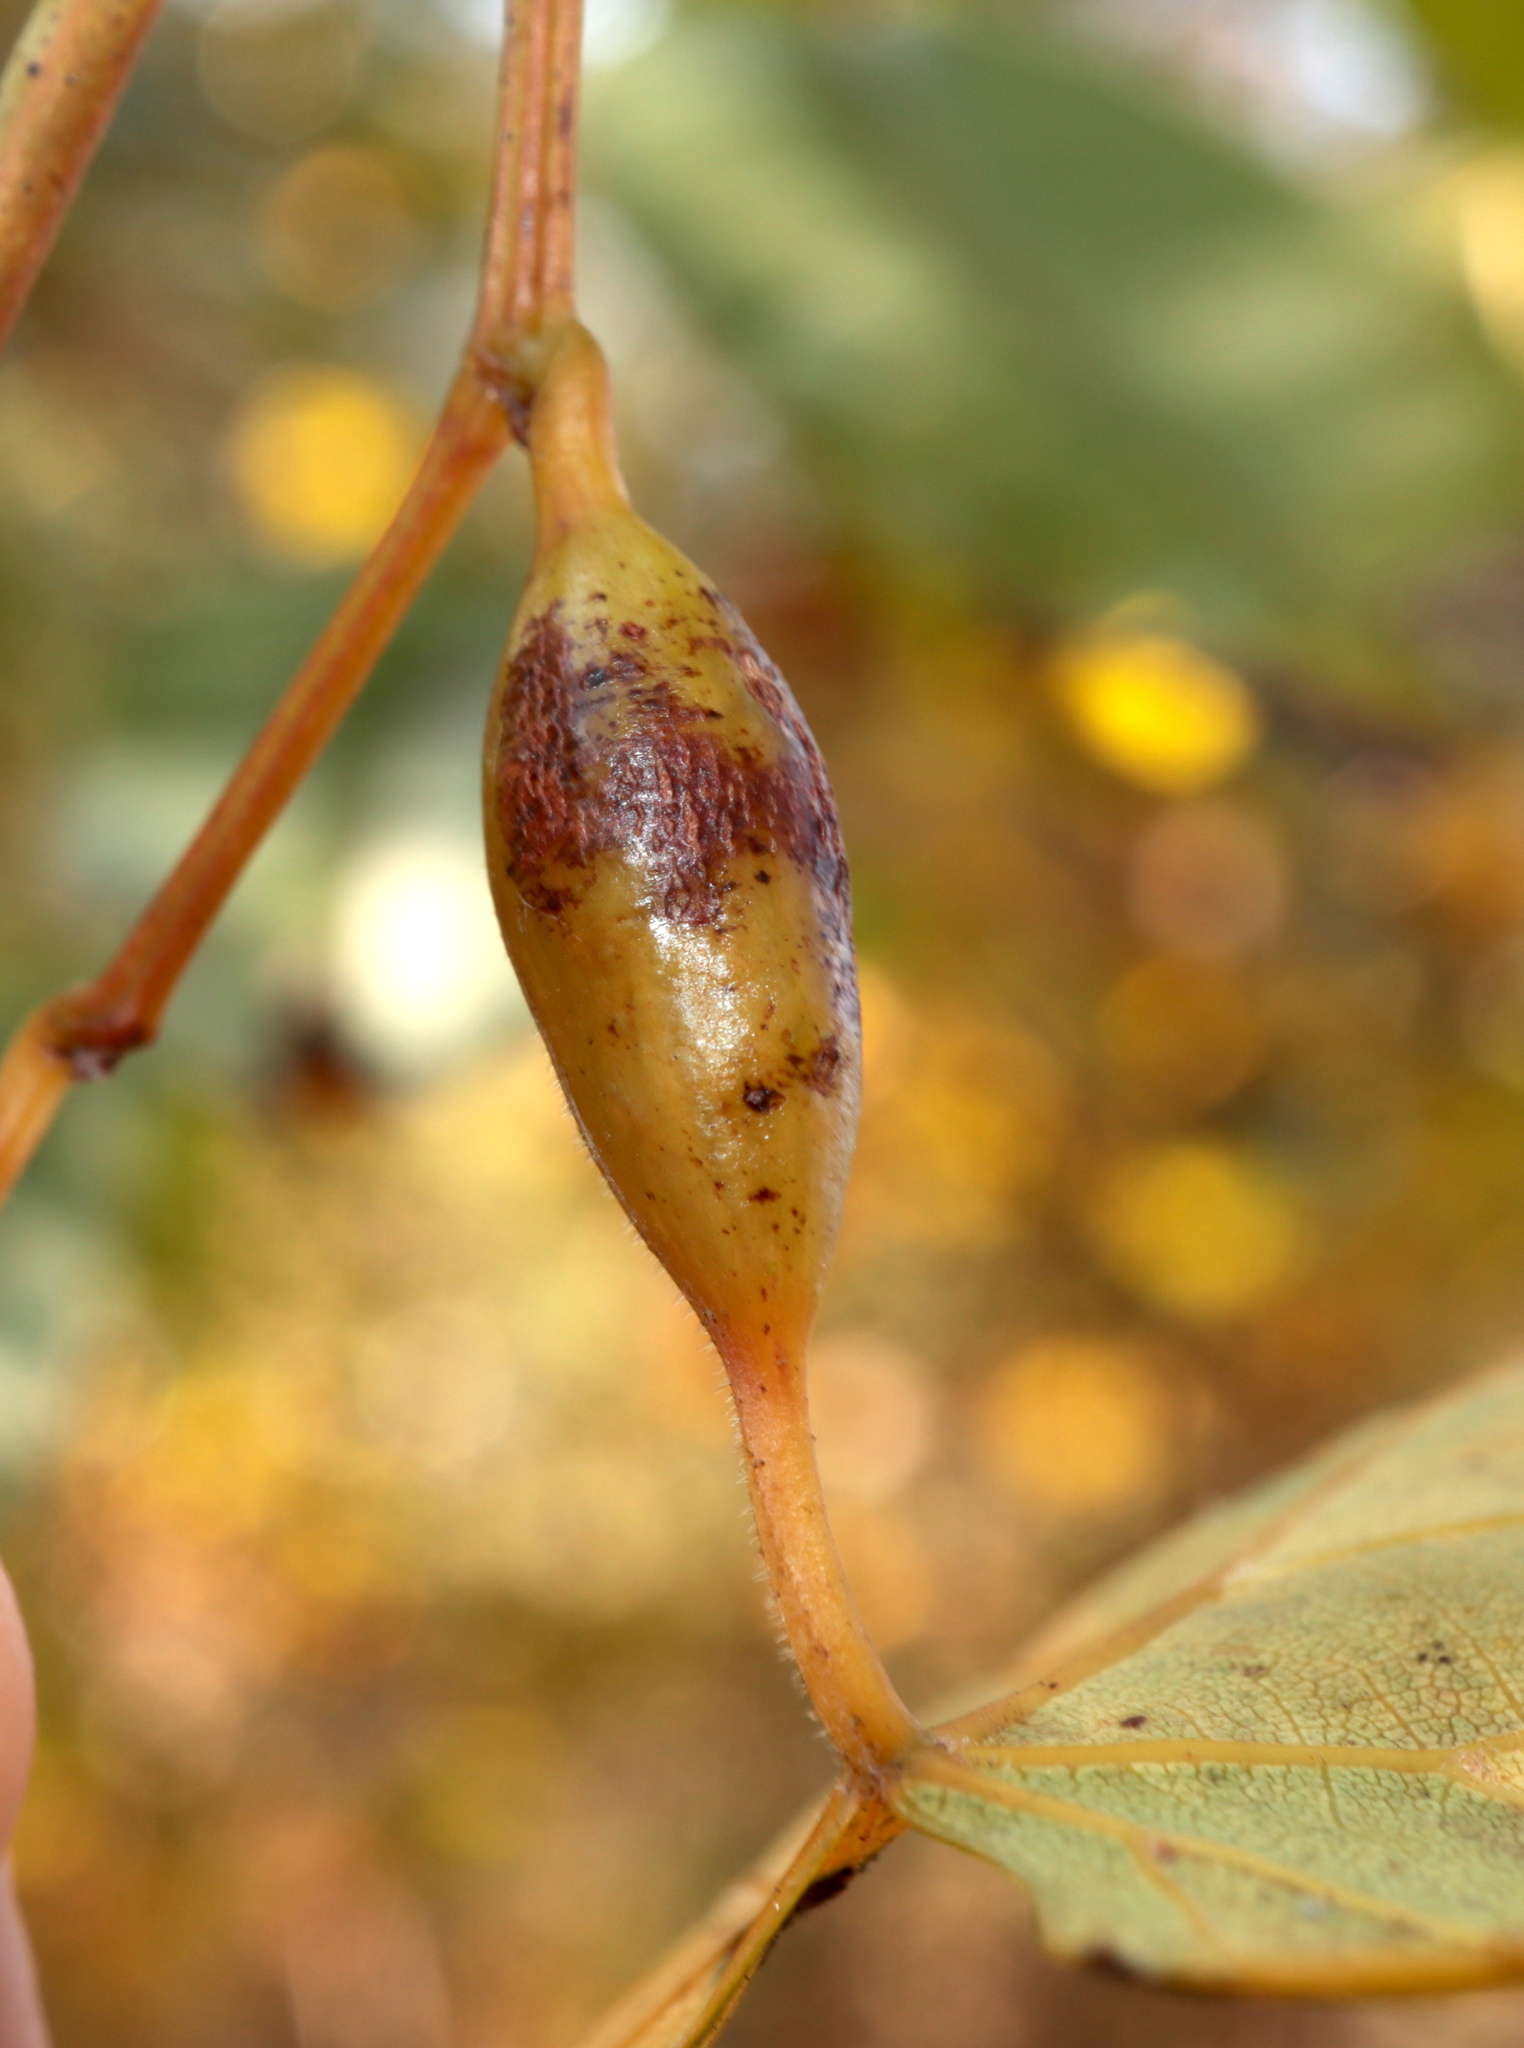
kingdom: Animalia
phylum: Arthropoda
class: Insecta
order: Diptera
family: Cecidomyiidae
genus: Neolasioptera
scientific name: Neolasioptera vitinea
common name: Grape leaf petiole gall
